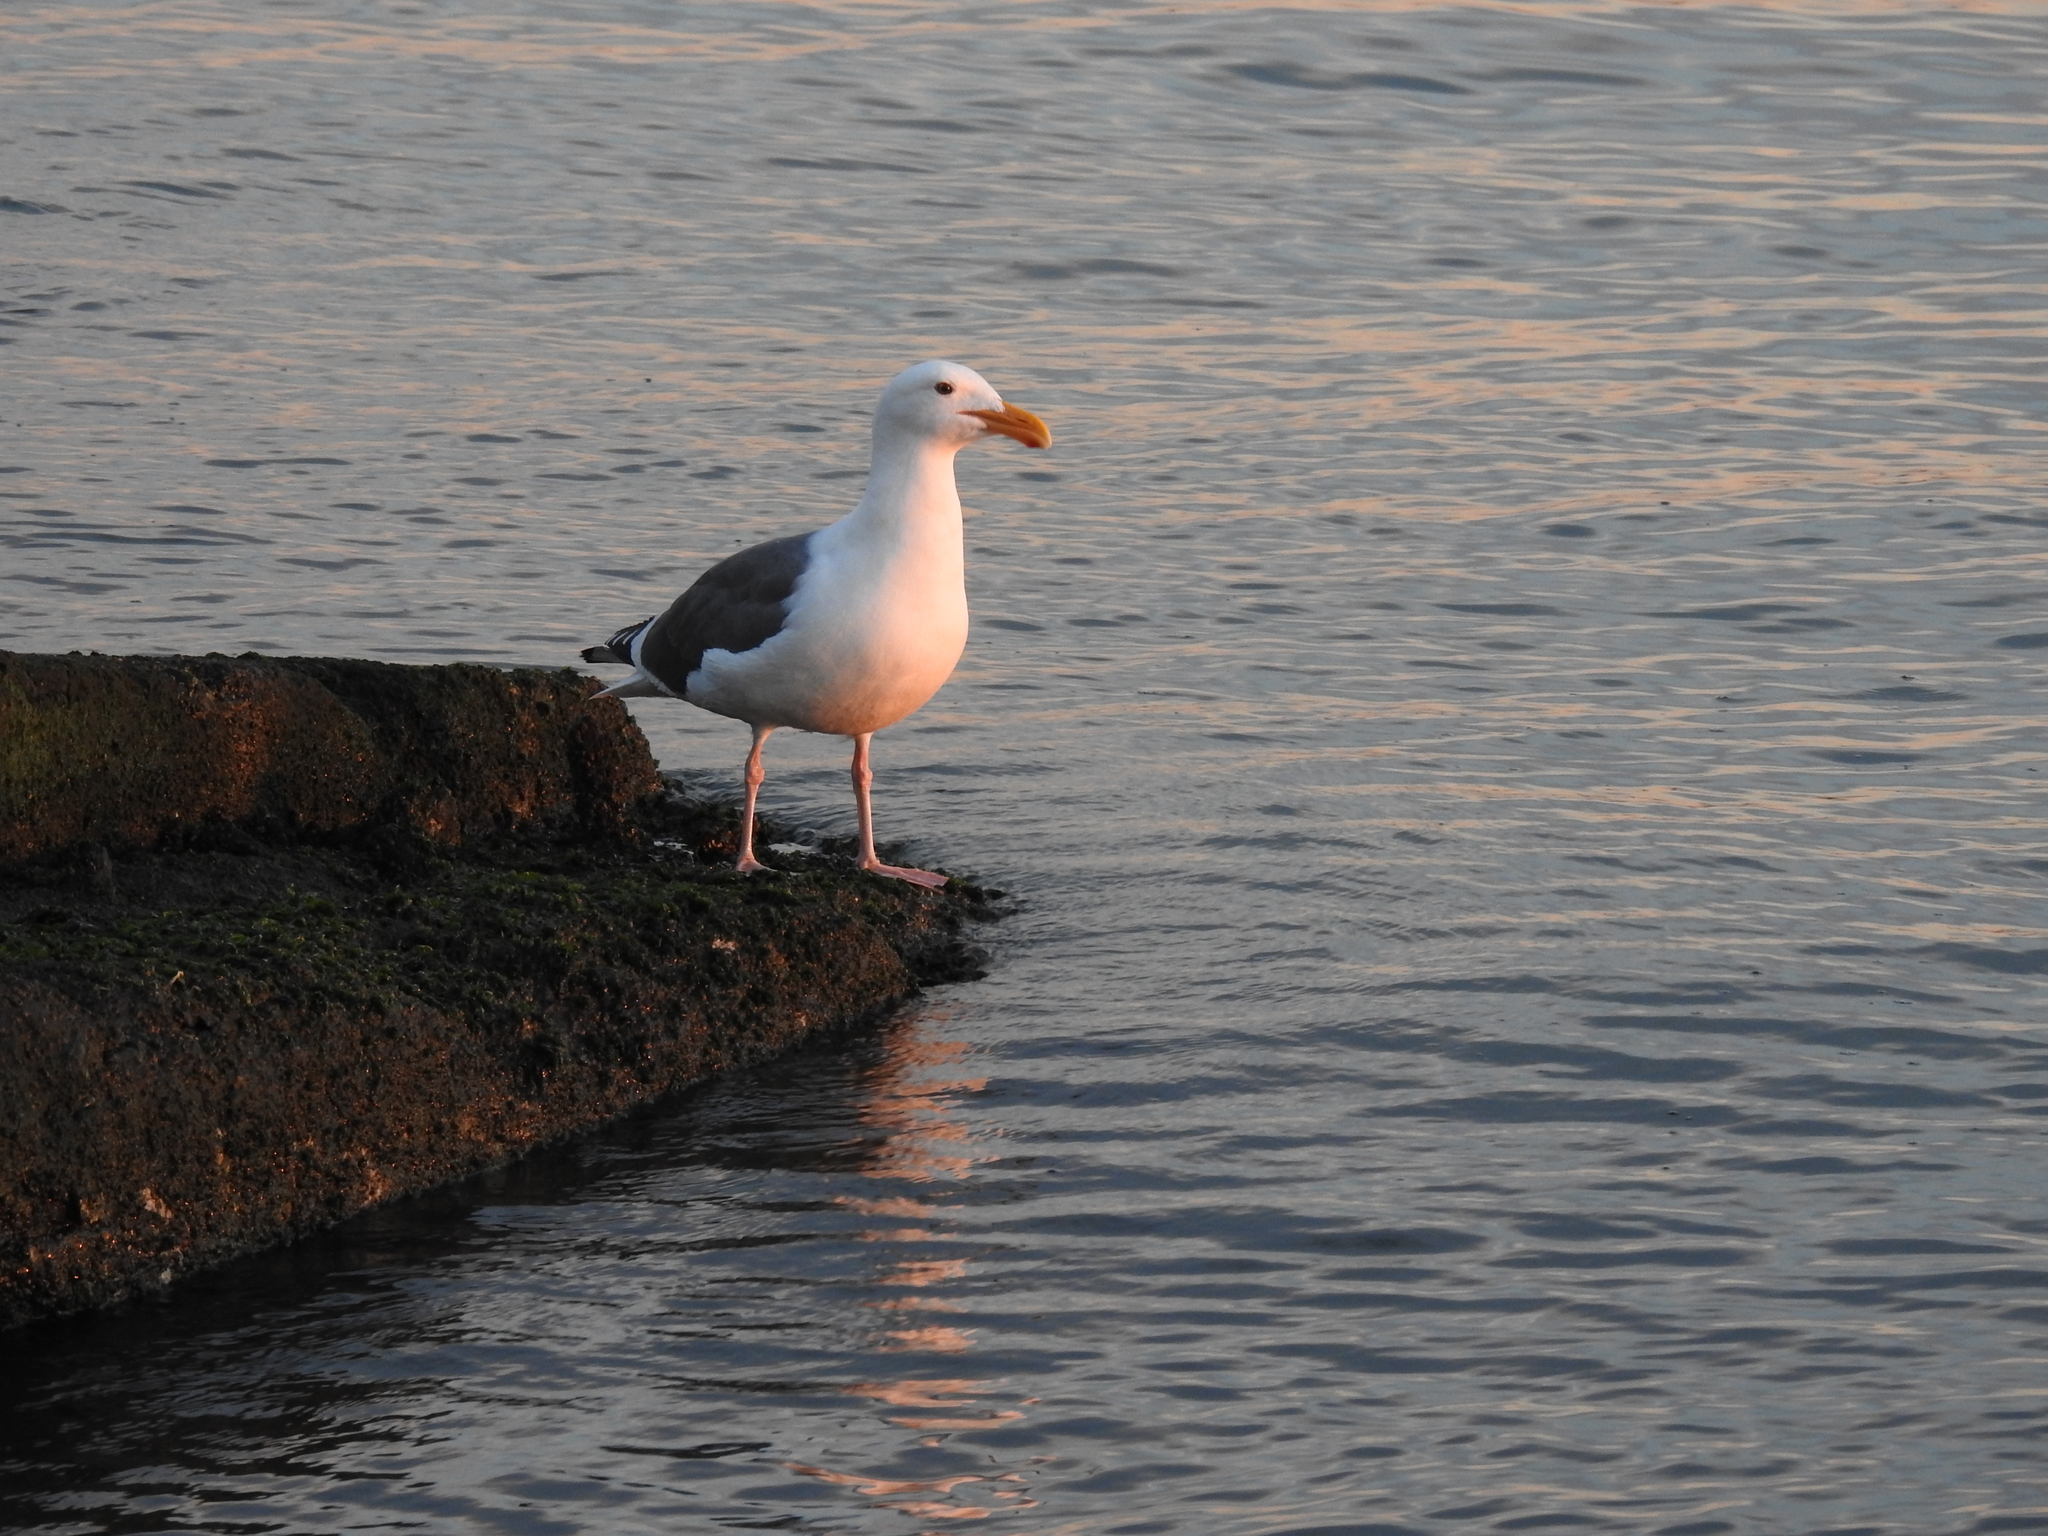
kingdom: Animalia
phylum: Chordata
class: Aves
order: Charadriiformes
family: Laridae
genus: Larus
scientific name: Larus occidentalis
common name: Western gull
